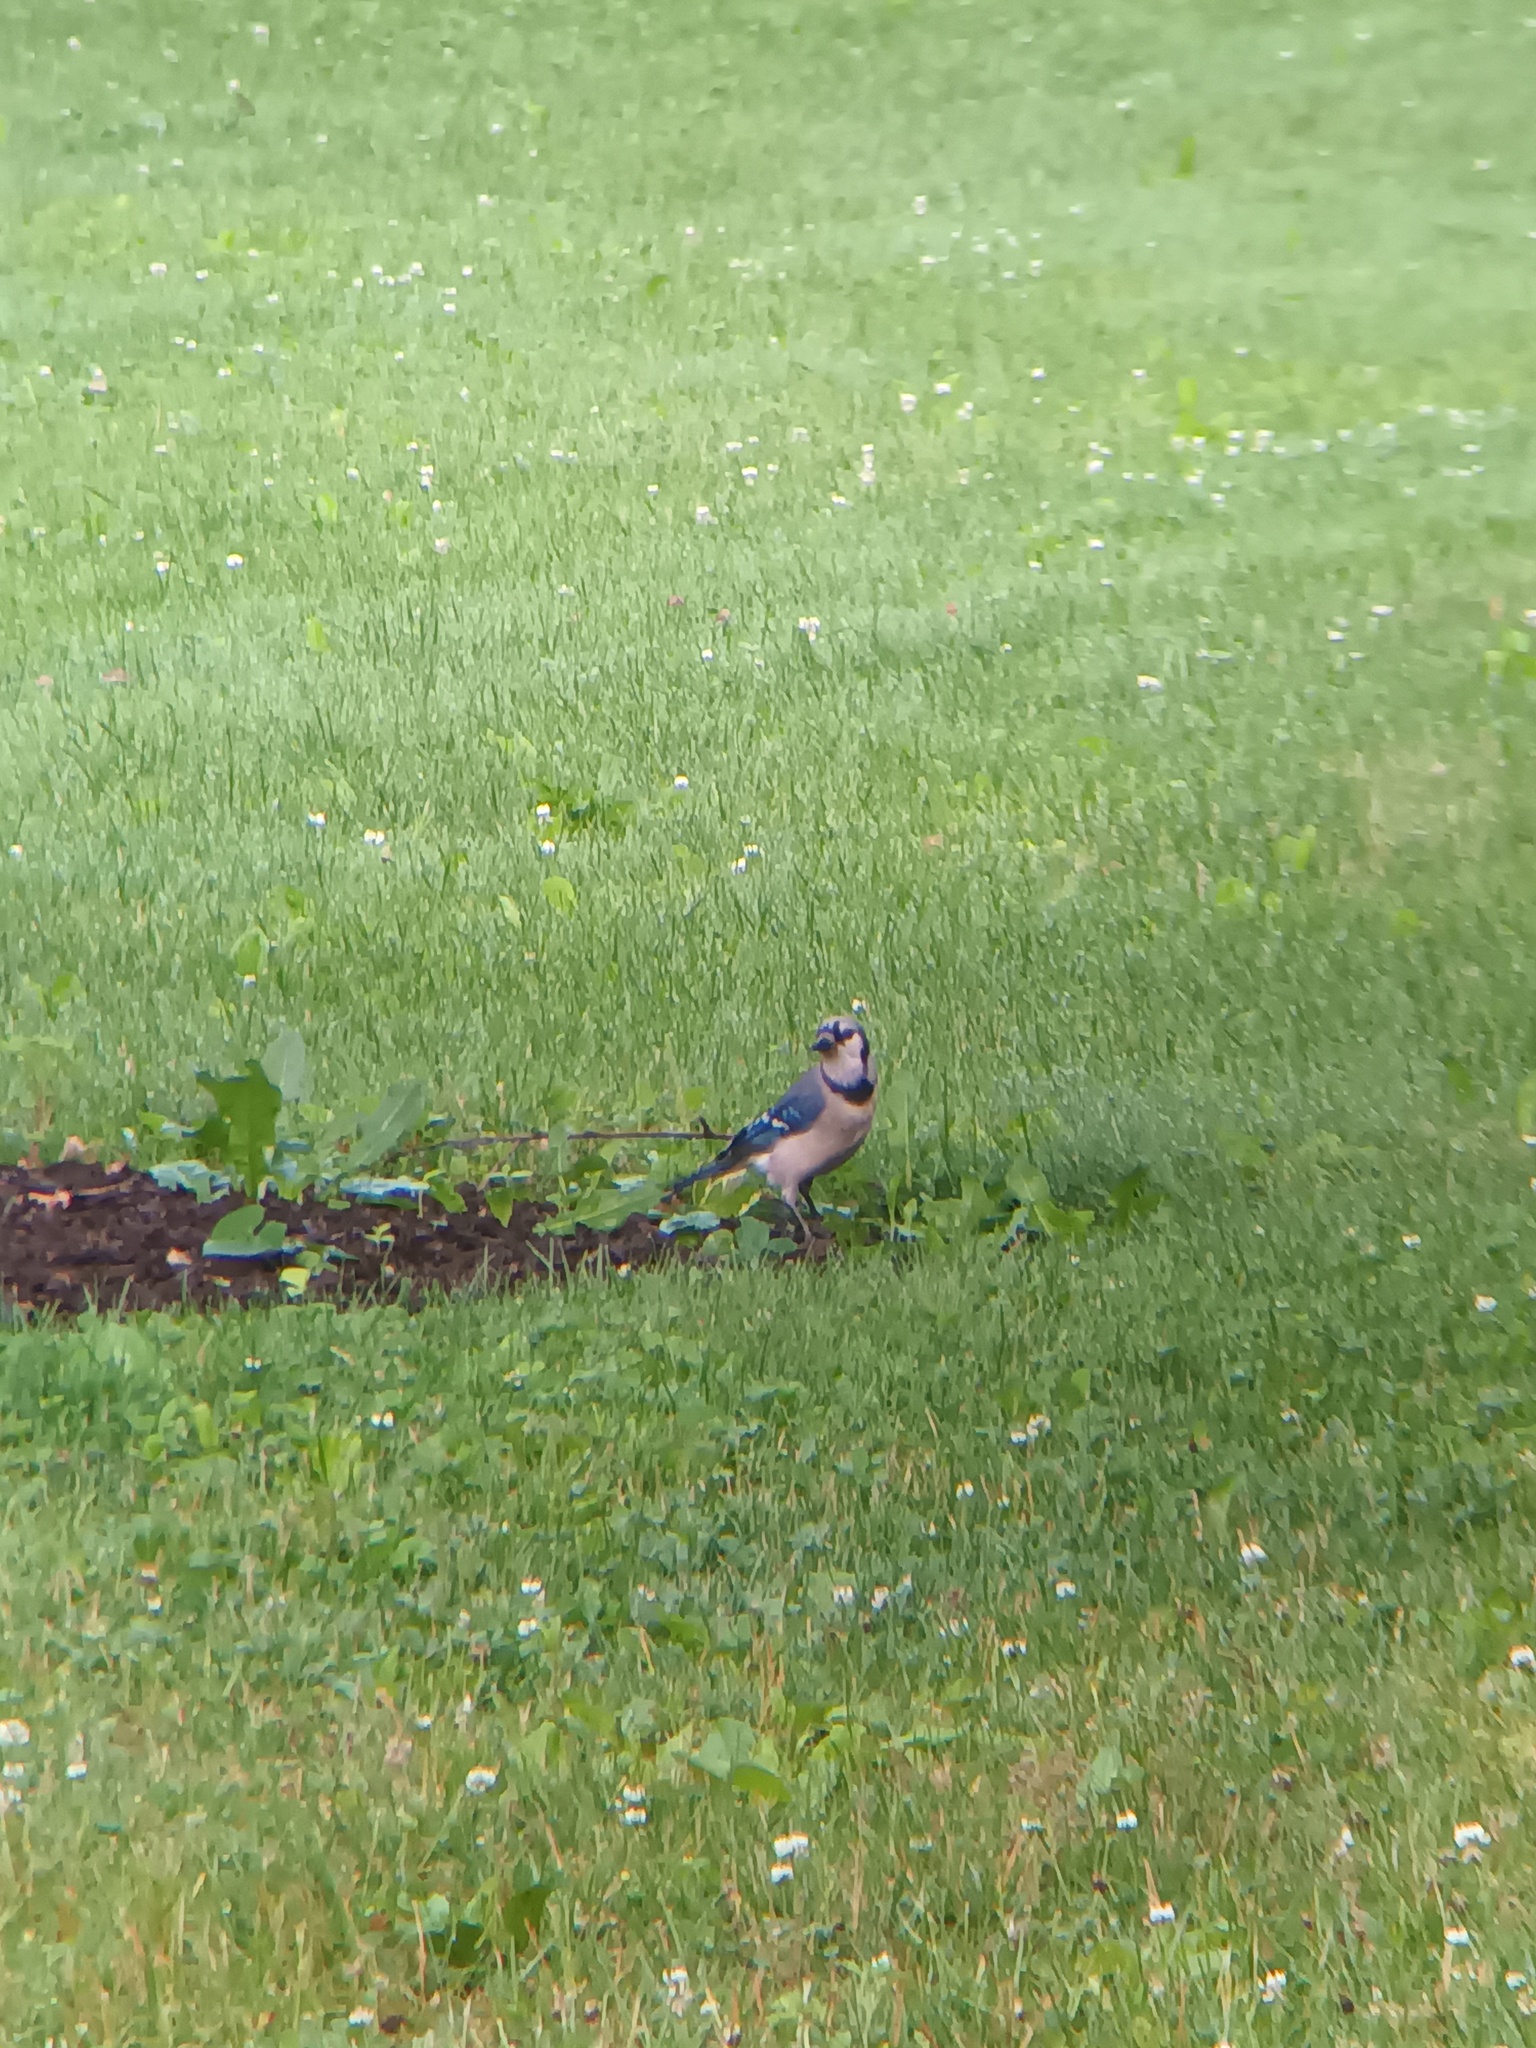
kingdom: Animalia
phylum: Chordata
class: Aves
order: Passeriformes
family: Corvidae
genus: Cyanocitta
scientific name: Cyanocitta cristata
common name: Blue jay
